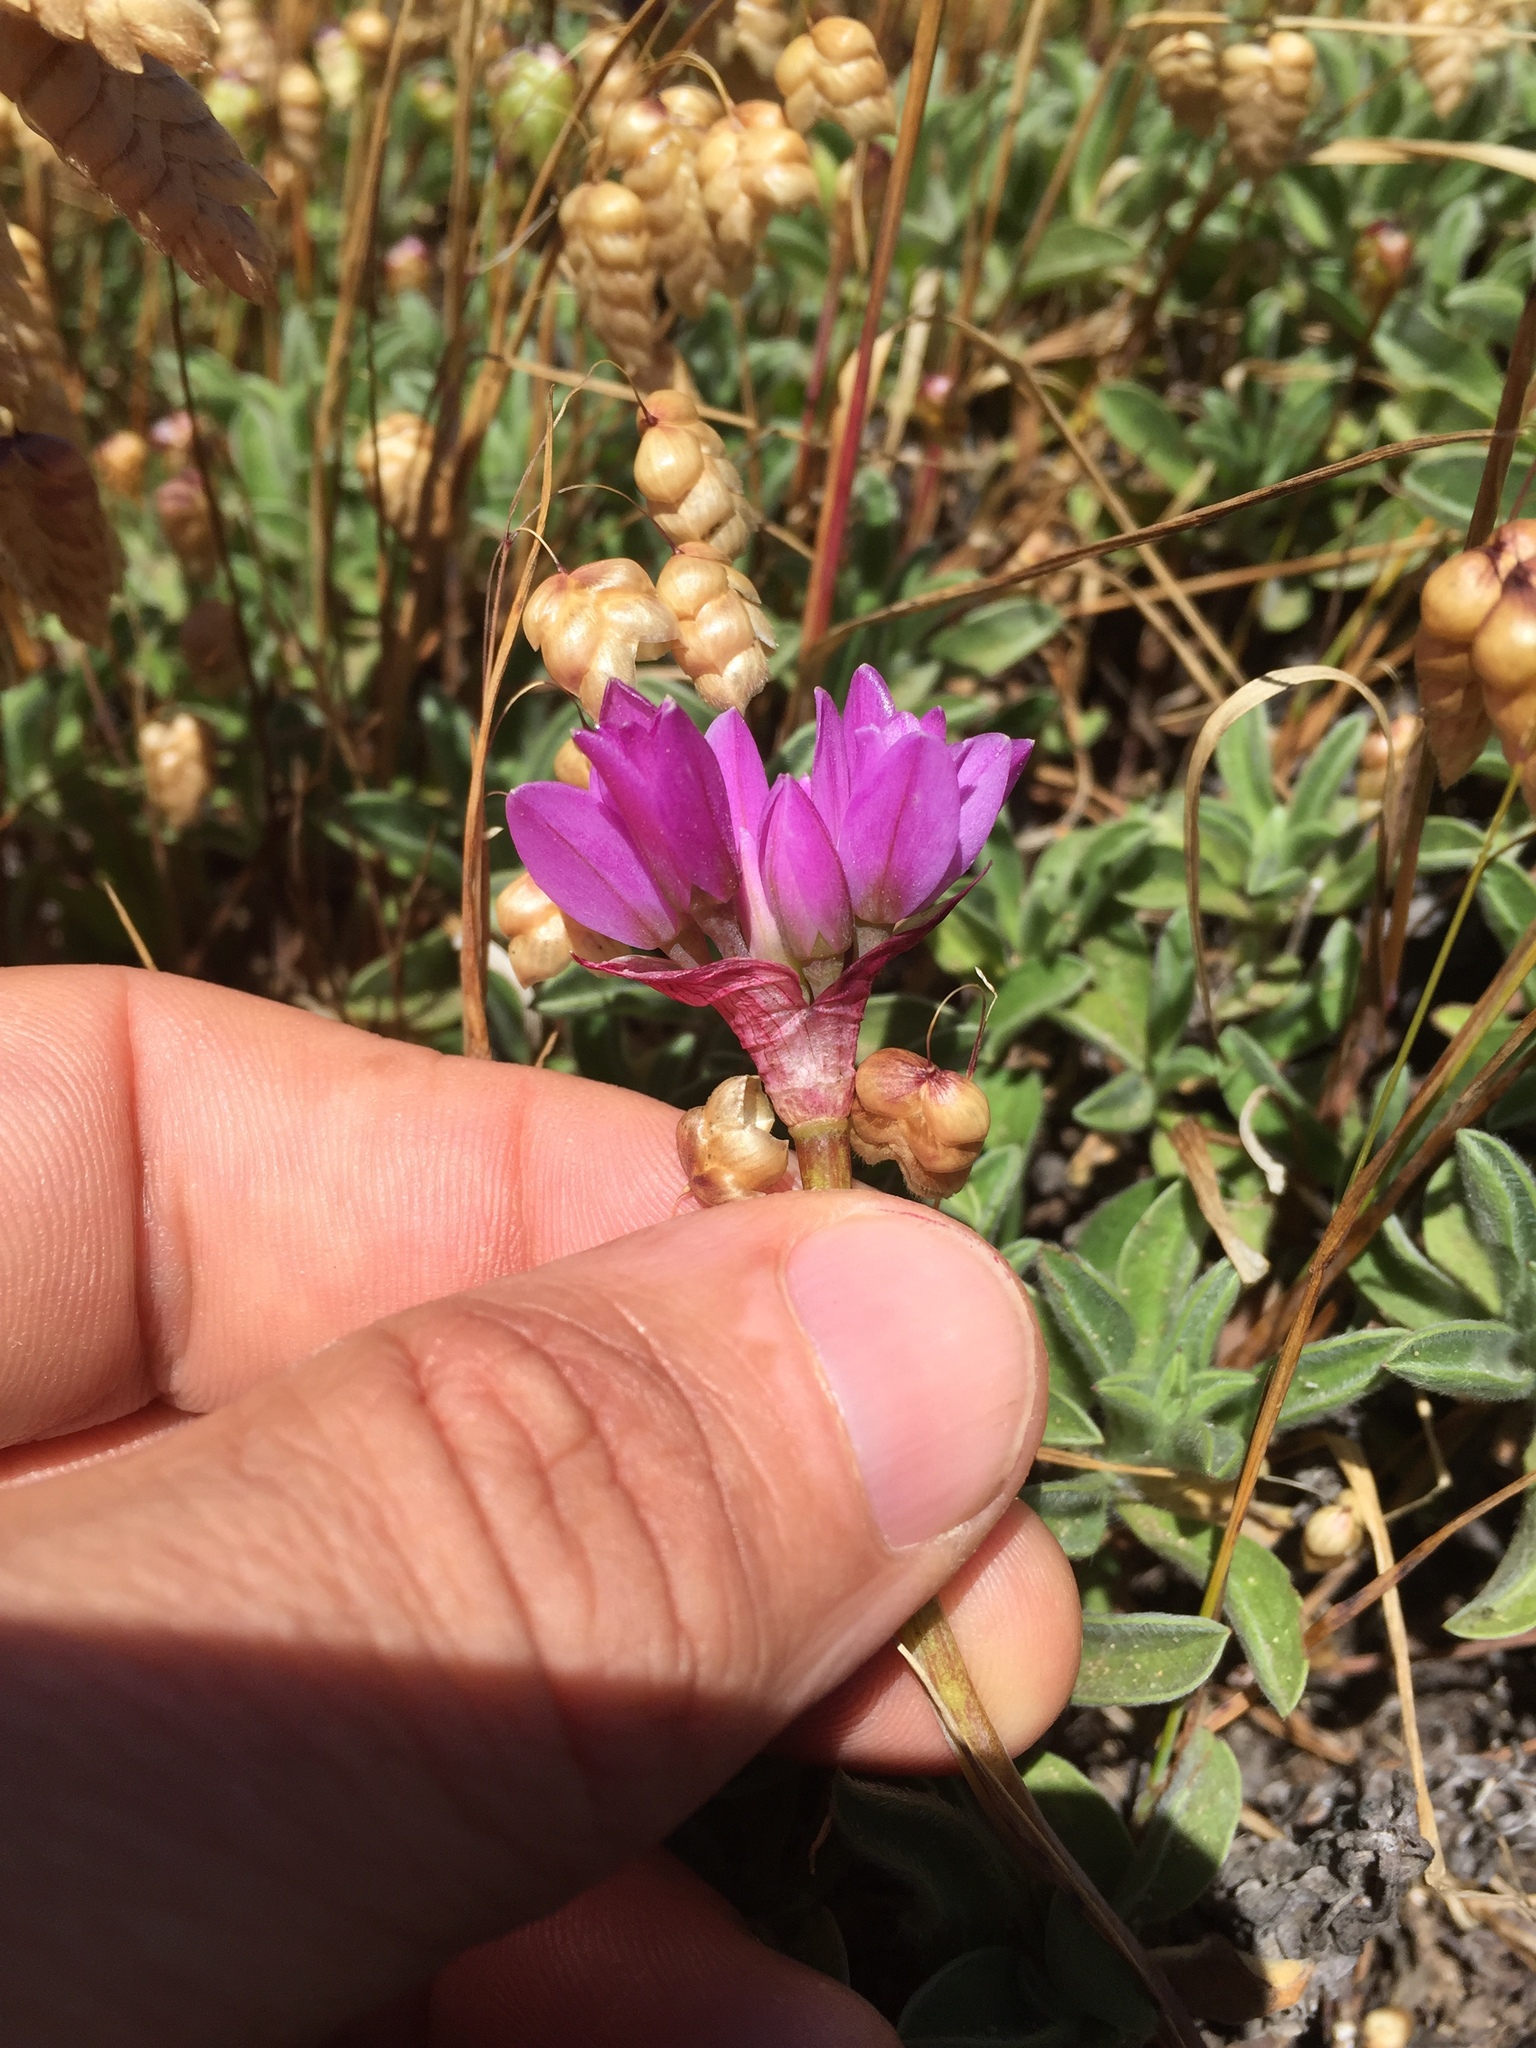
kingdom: Plantae
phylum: Tracheophyta
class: Liliopsida
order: Asparagales
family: Amaryllidaceae
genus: Allium
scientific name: Allium dichlamydeum
